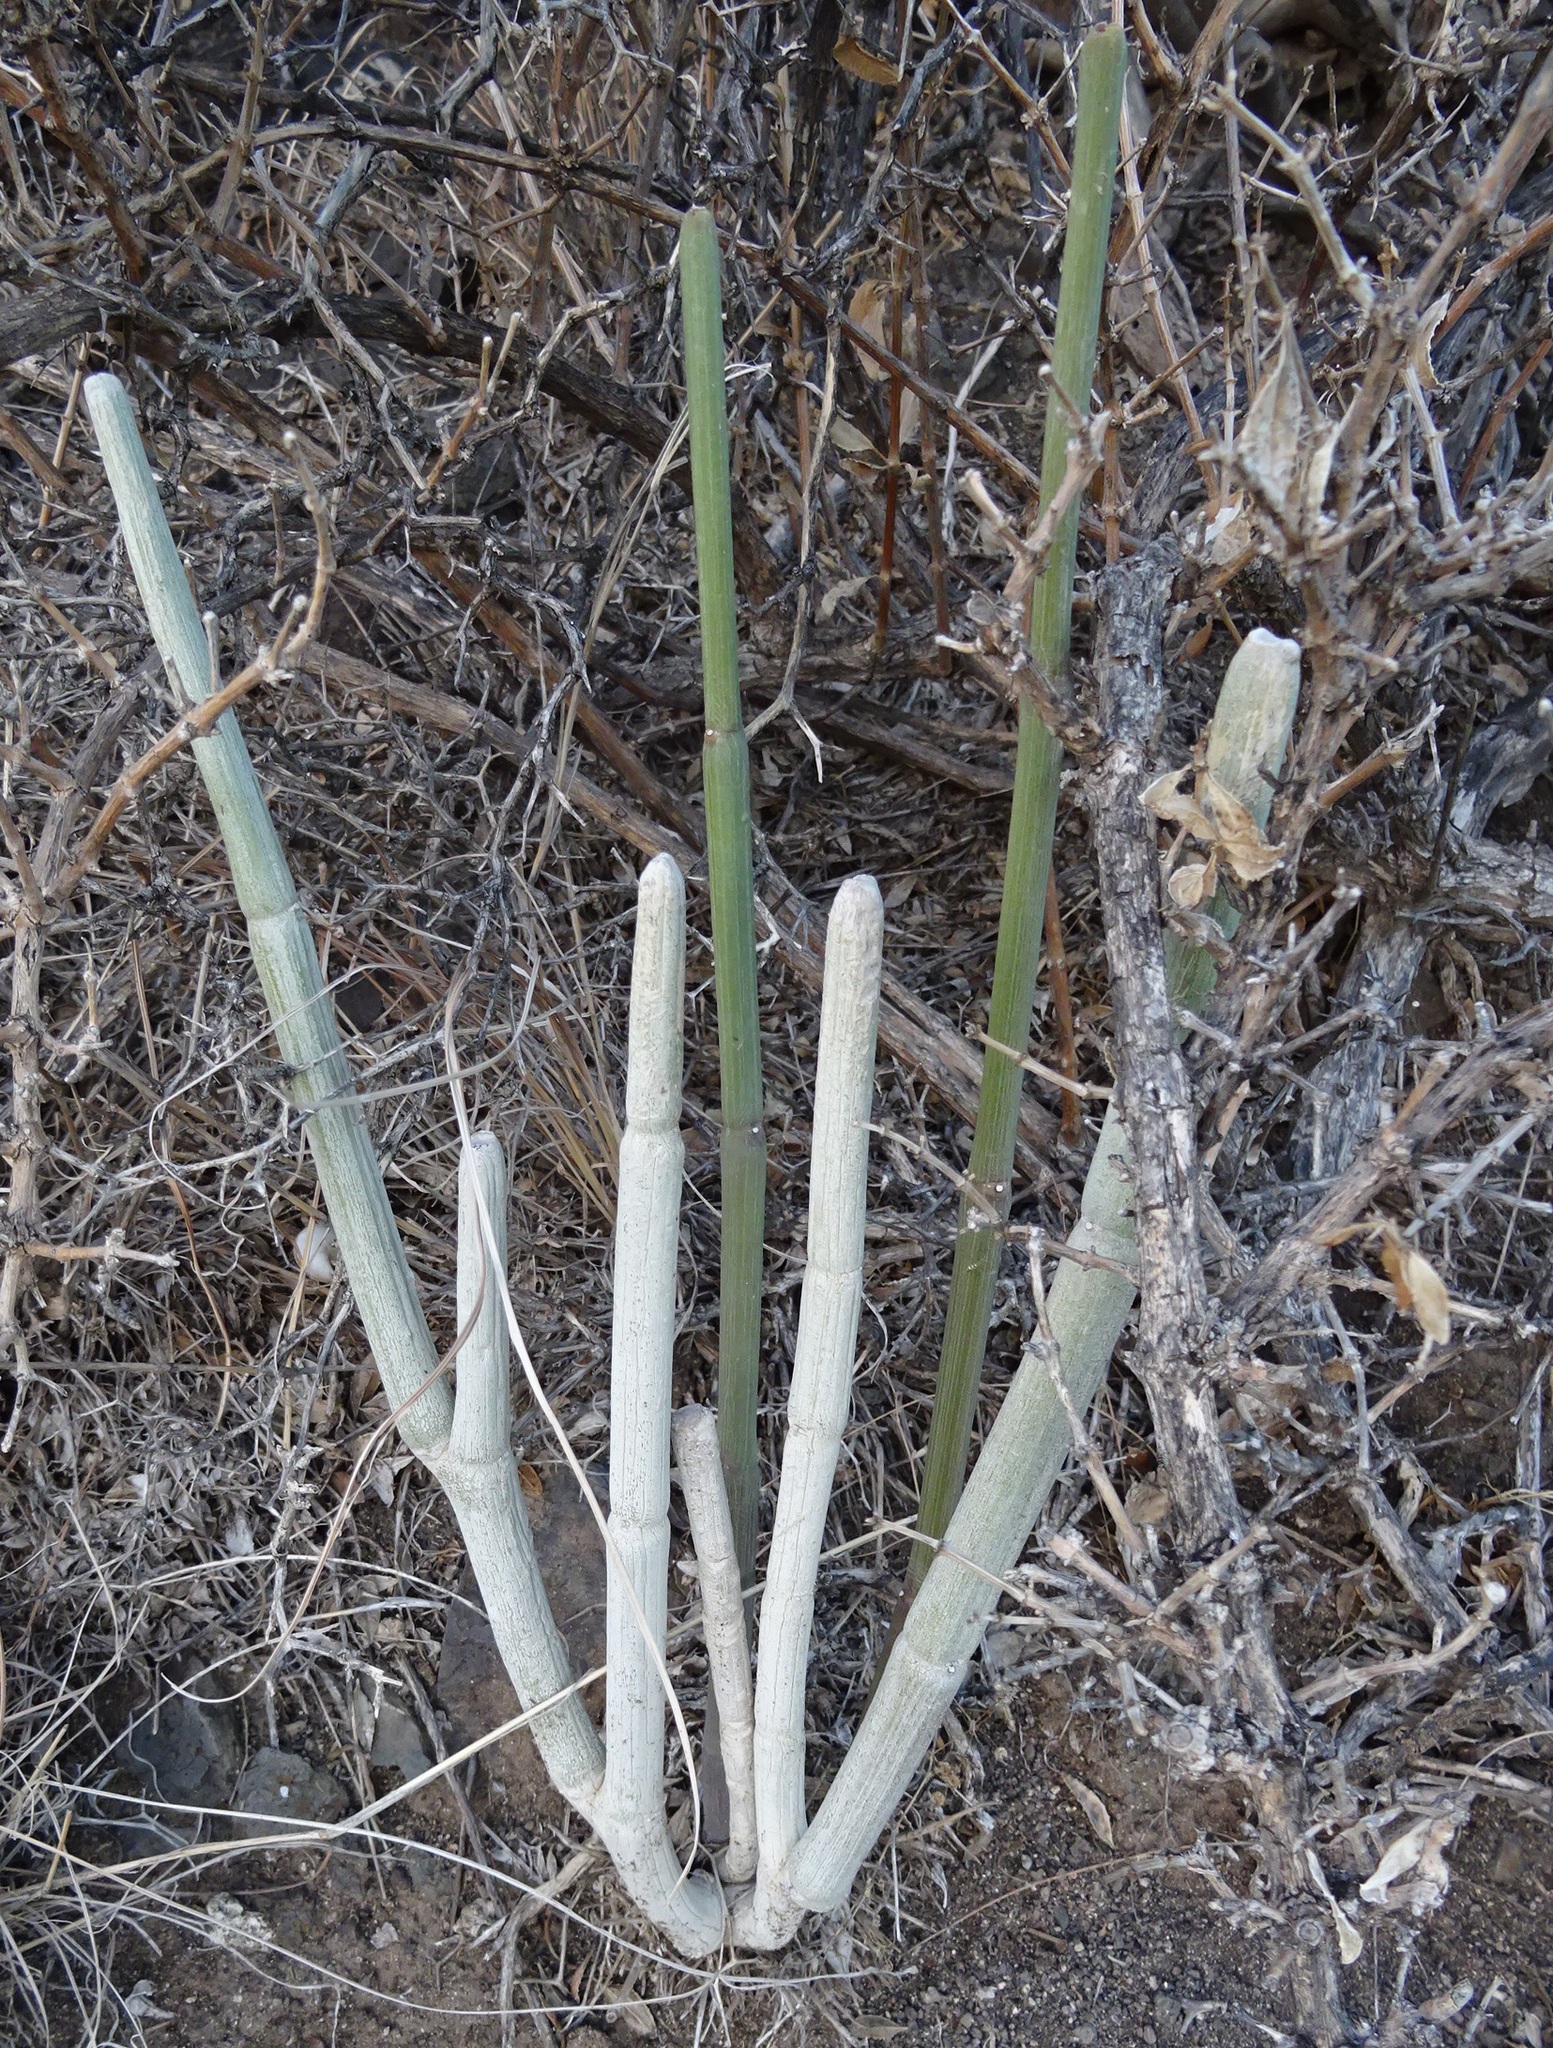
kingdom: Plantae
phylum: Tracheophyta
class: Magnoliopsida
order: Gentianales
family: Apocynaceae
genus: Ceropegia
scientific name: Ceropegia fusca
